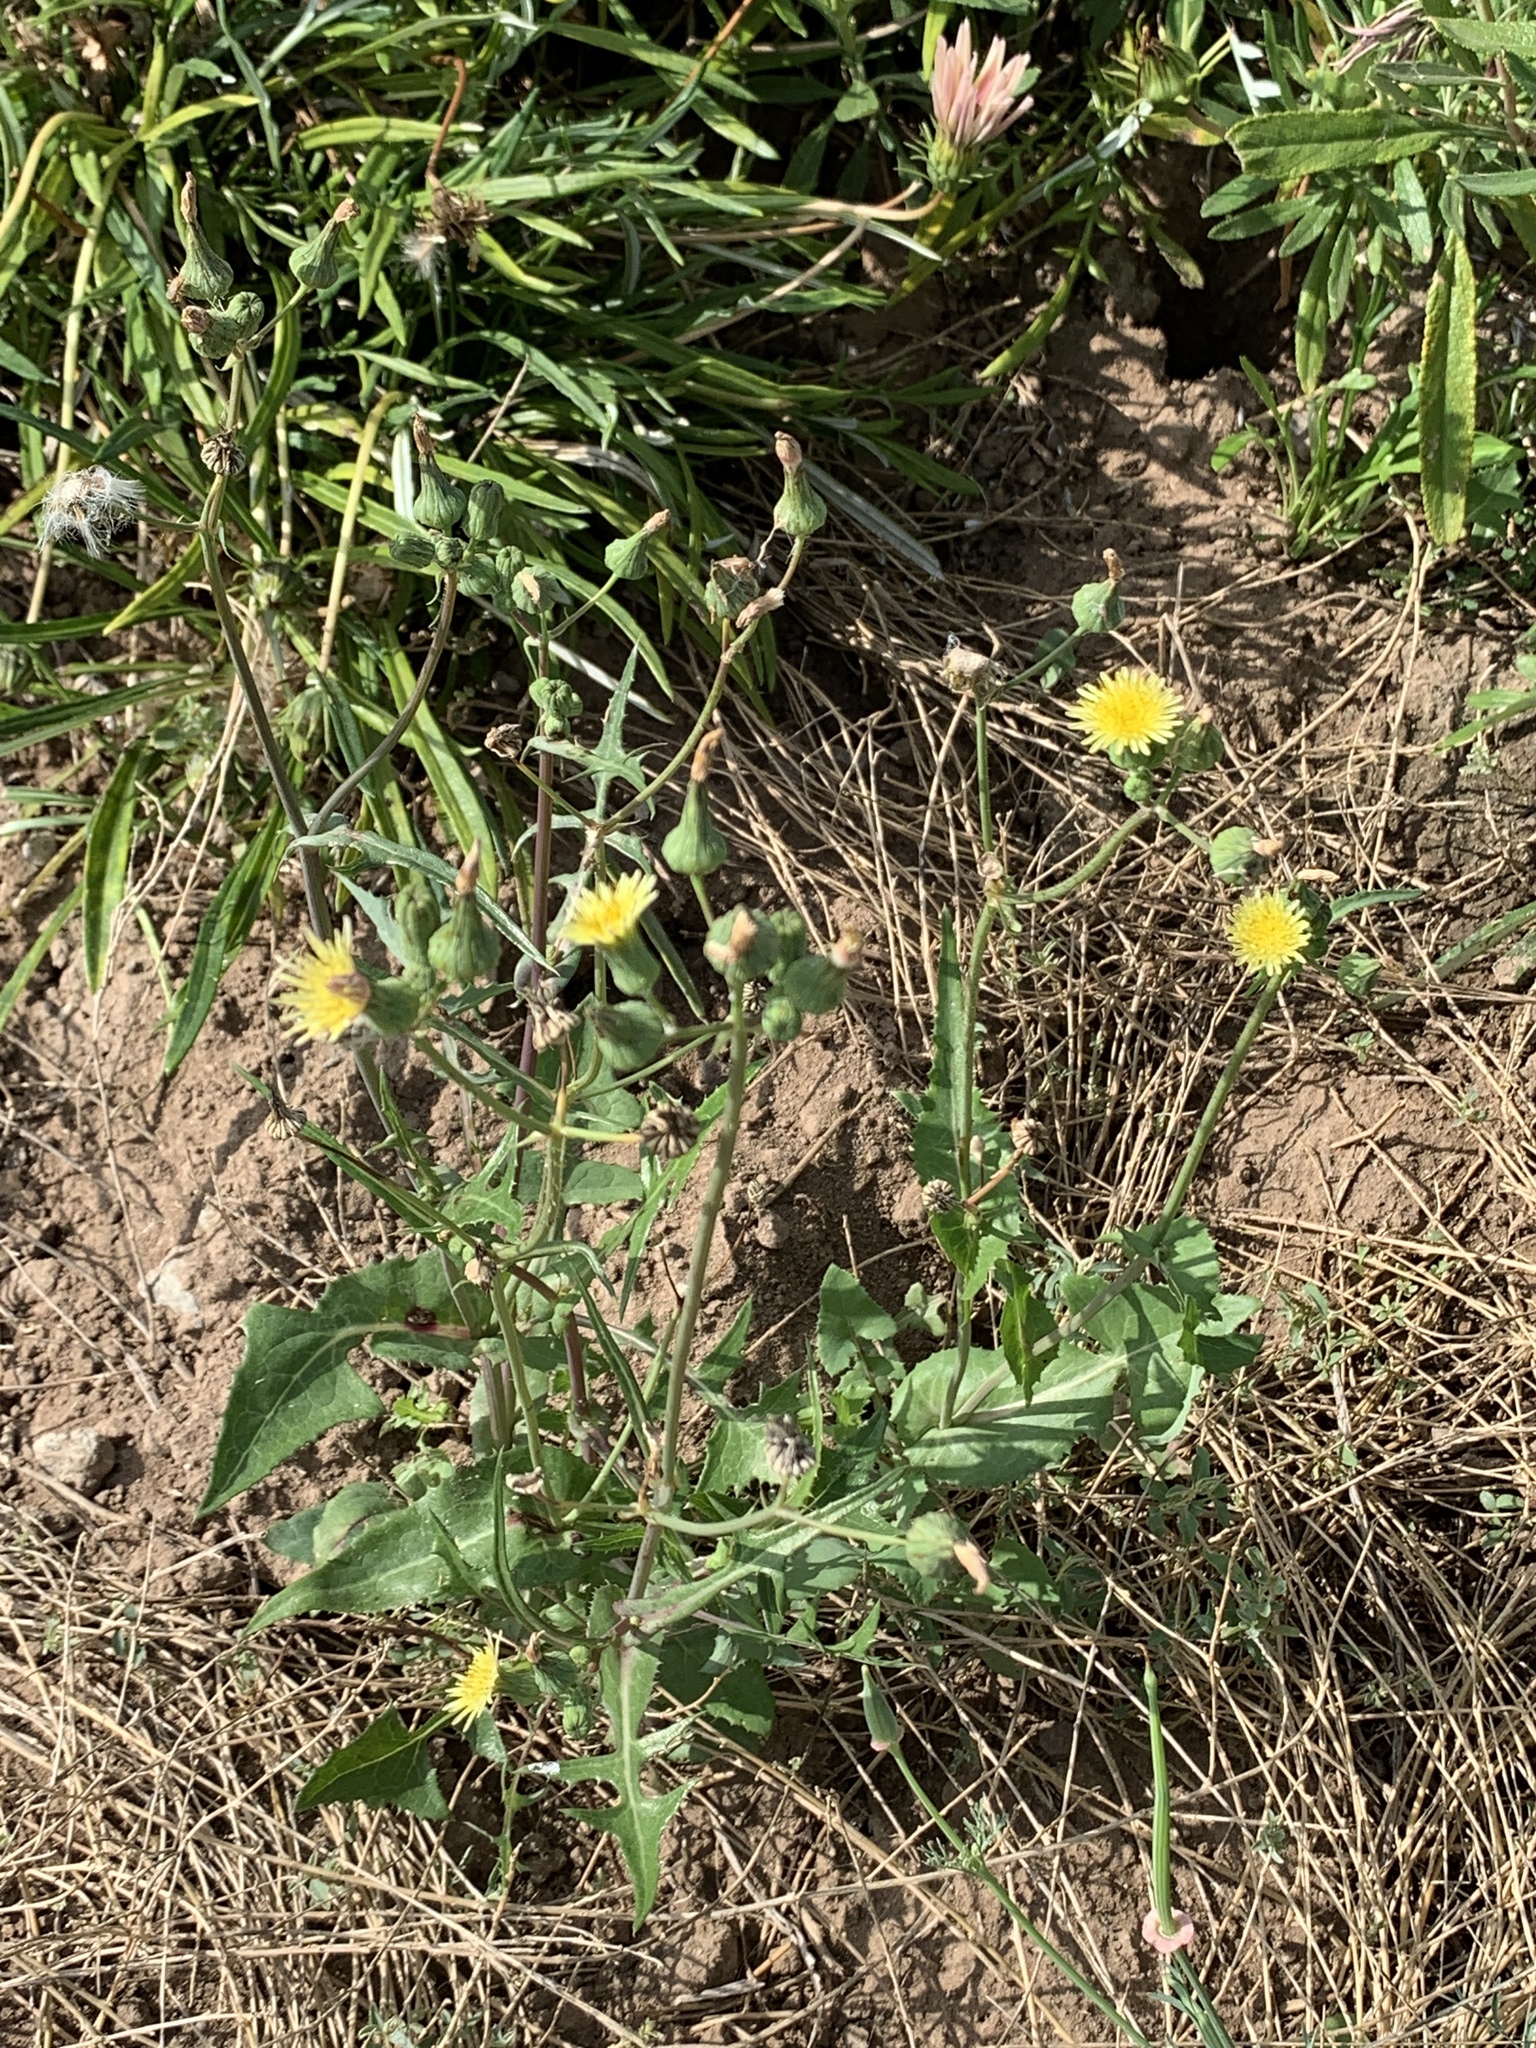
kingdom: Plantae
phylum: Tracheophyta
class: Magnoliopsida
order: Asterales
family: Asteraceae
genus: Sonchus
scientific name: Sonchus oleraceus
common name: Common sowthistle
